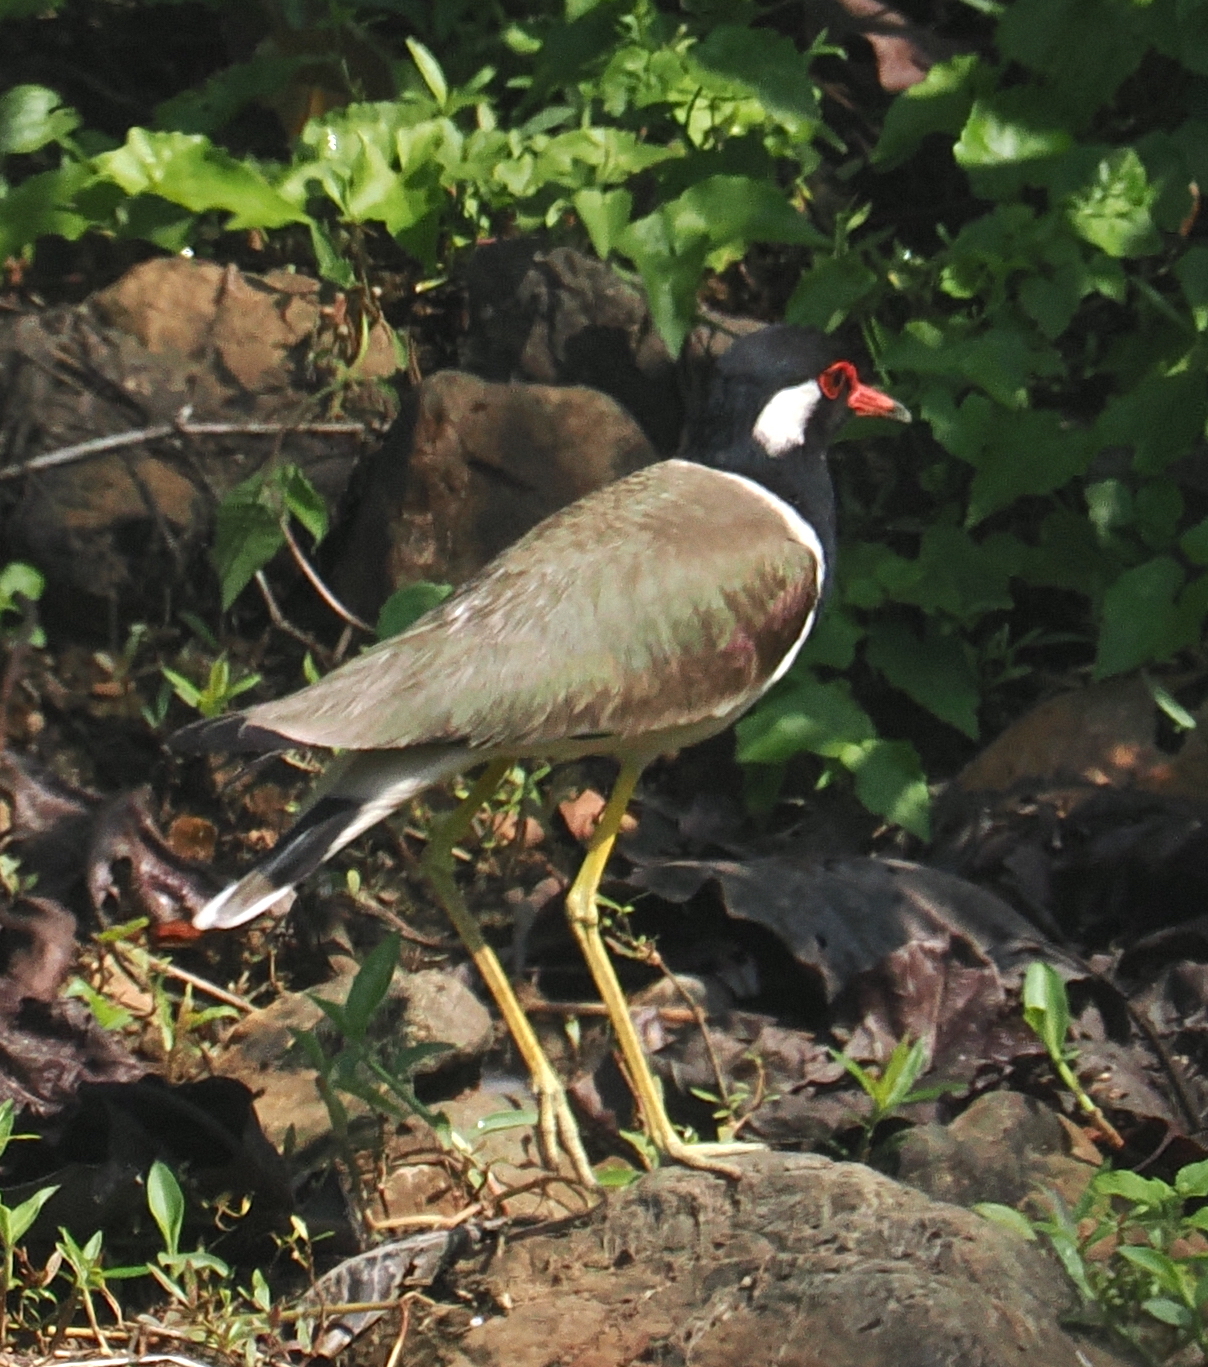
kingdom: Animalia
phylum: Chordata
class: Aves
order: Charadriiformes
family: Charadriidae
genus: Vanellus
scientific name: Vanellus indicus
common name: Red-wattled lapwing
